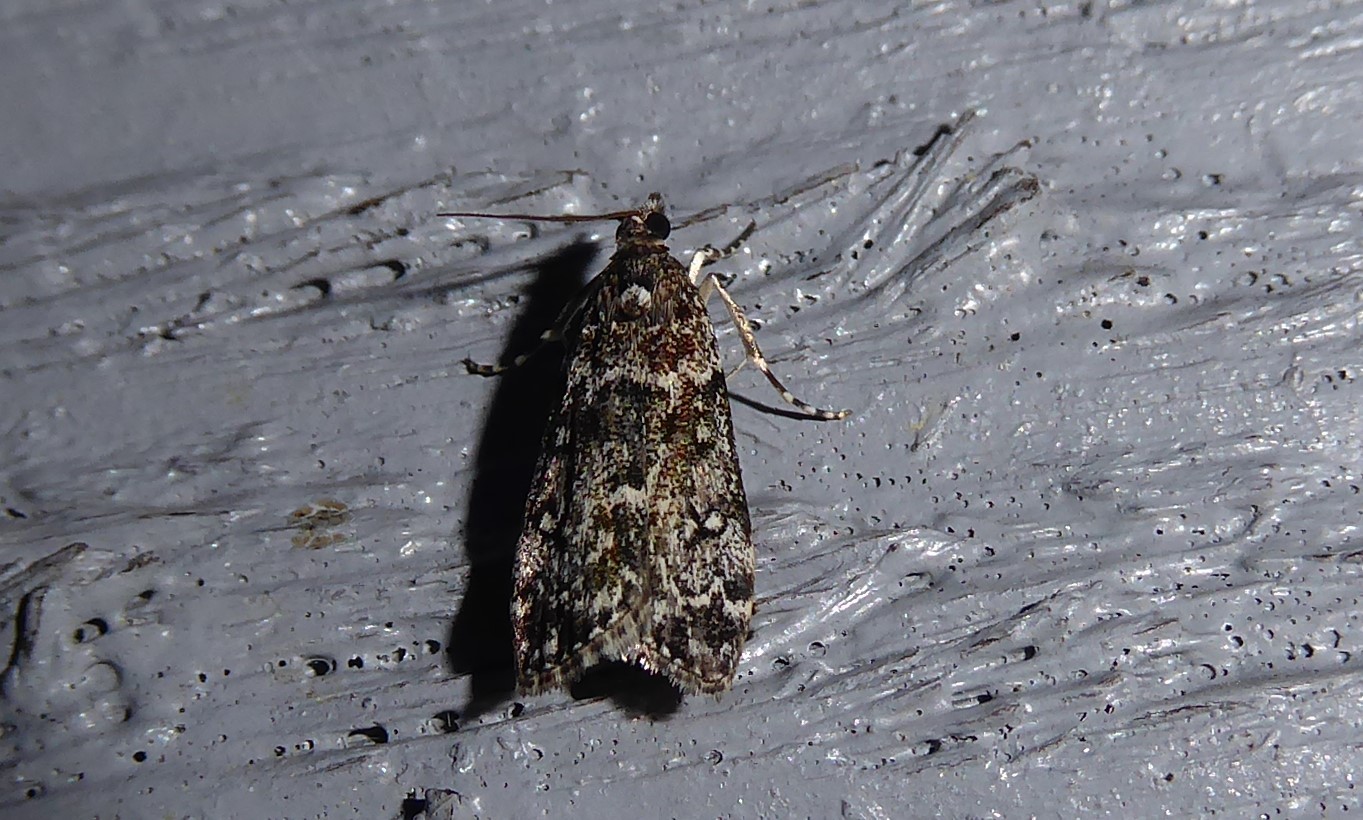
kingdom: Animalia
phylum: Arthropoda
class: Insecta
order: Lepidoptera
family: Crambidae
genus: Eudonia
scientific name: Eudonia philerga
